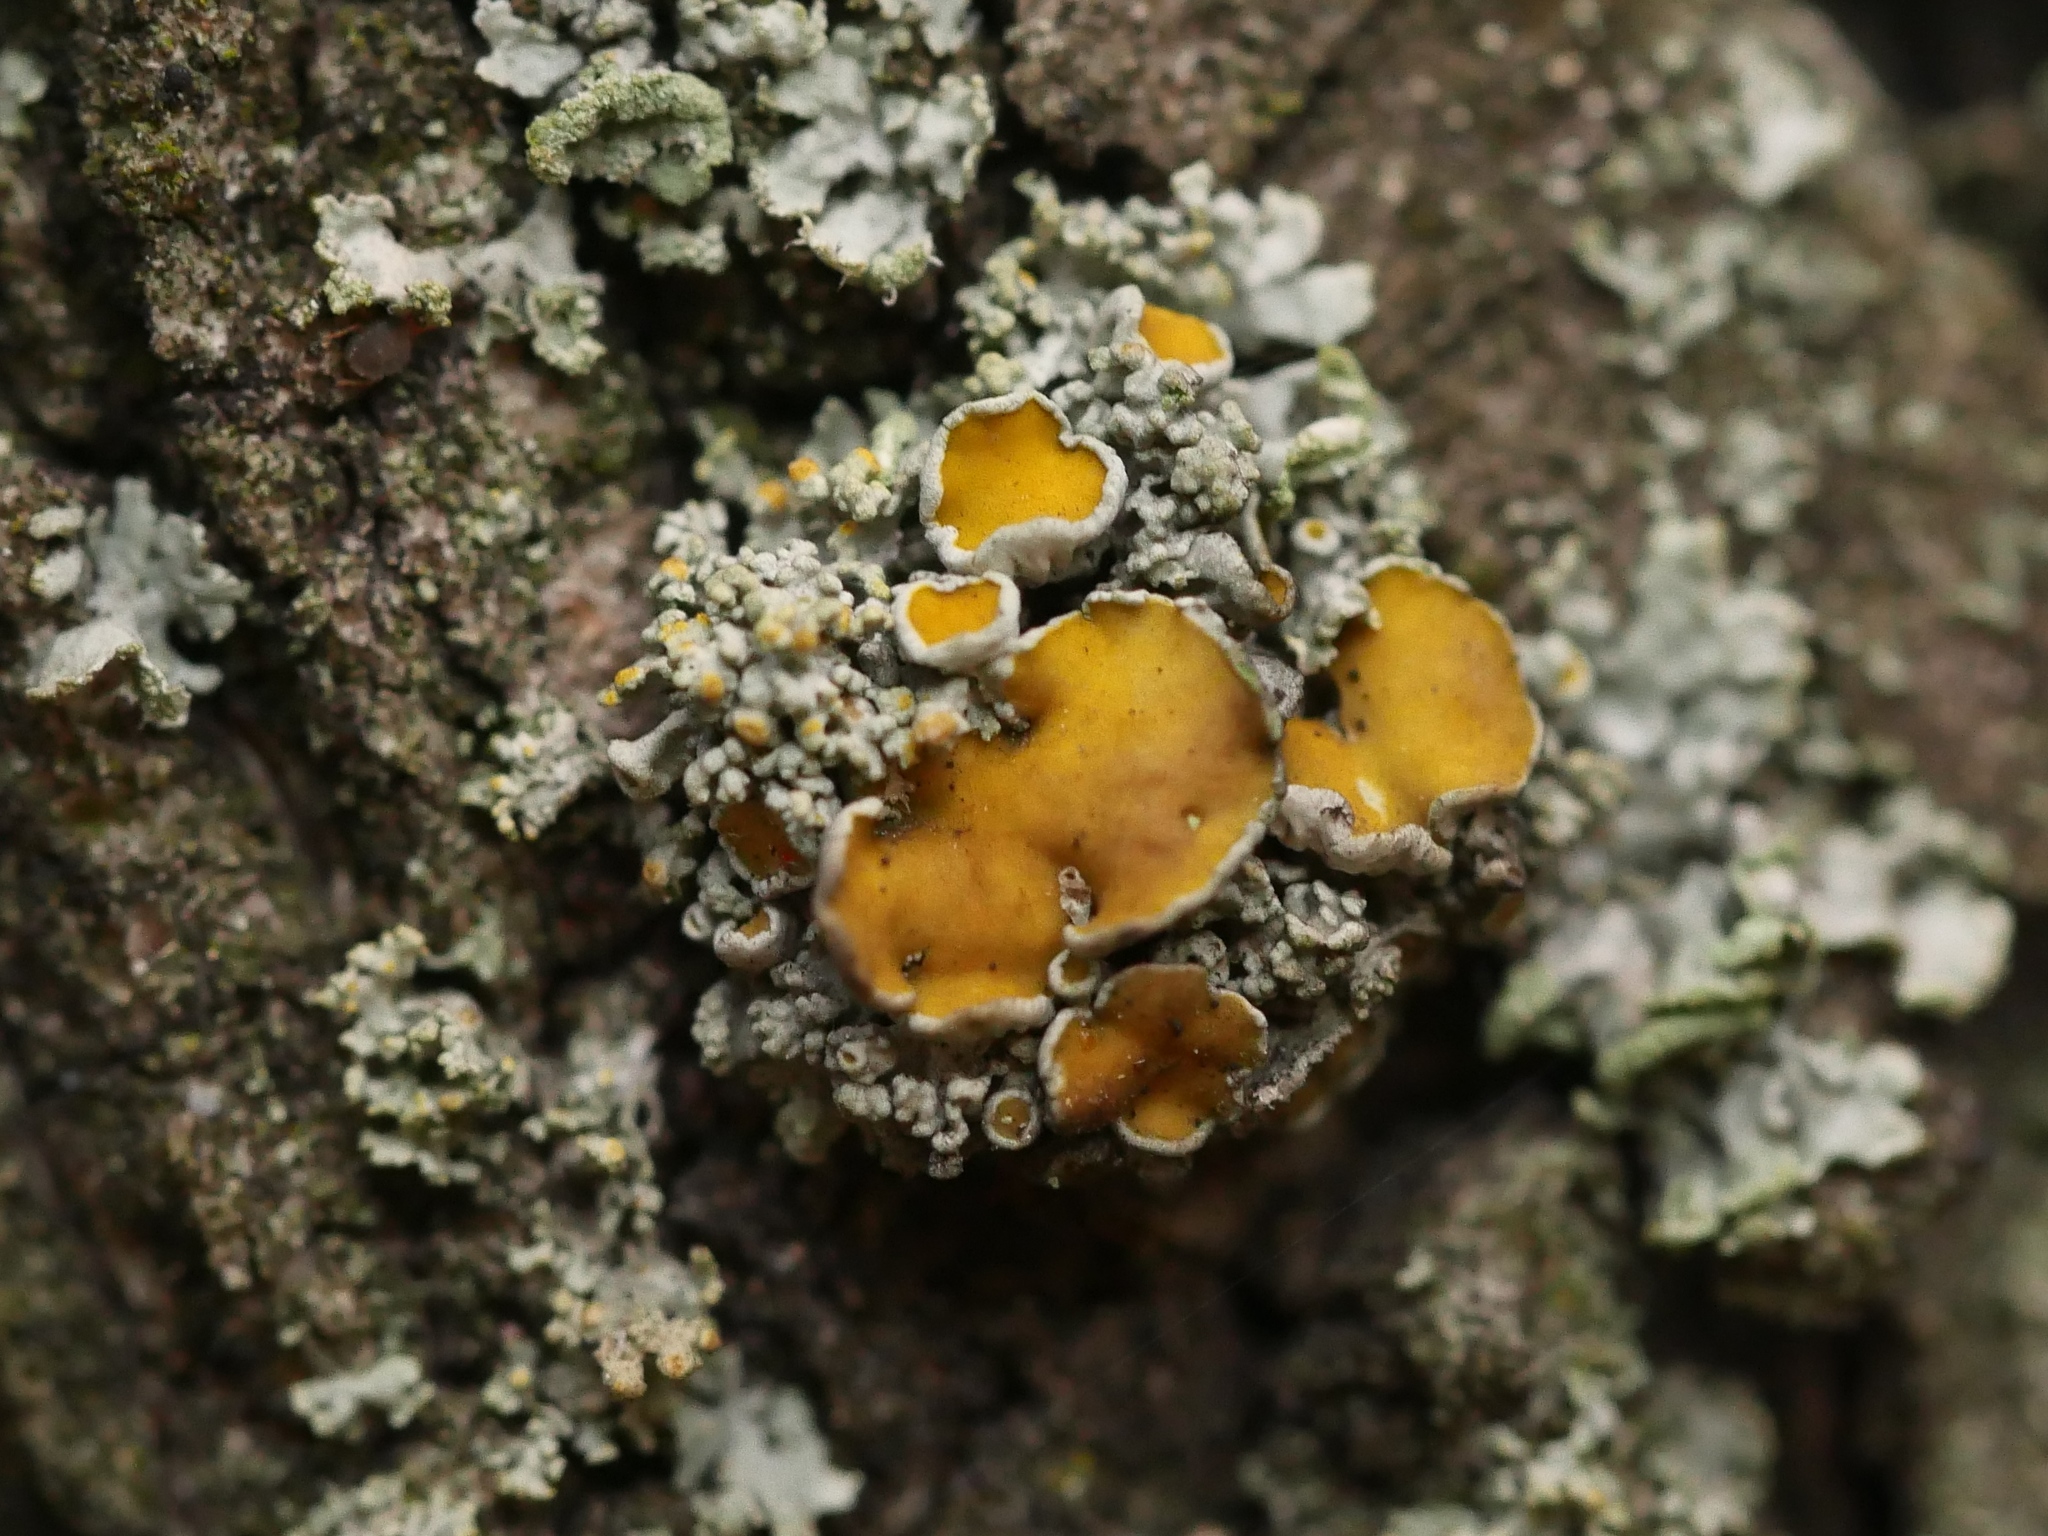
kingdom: Fungi
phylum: Ascomycota
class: Lecanoromycetes
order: Teloschistales
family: Teloschistaceae
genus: Polycauliona
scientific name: Polycauliona polycarpa
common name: Pin-cushion sunburst lichen
